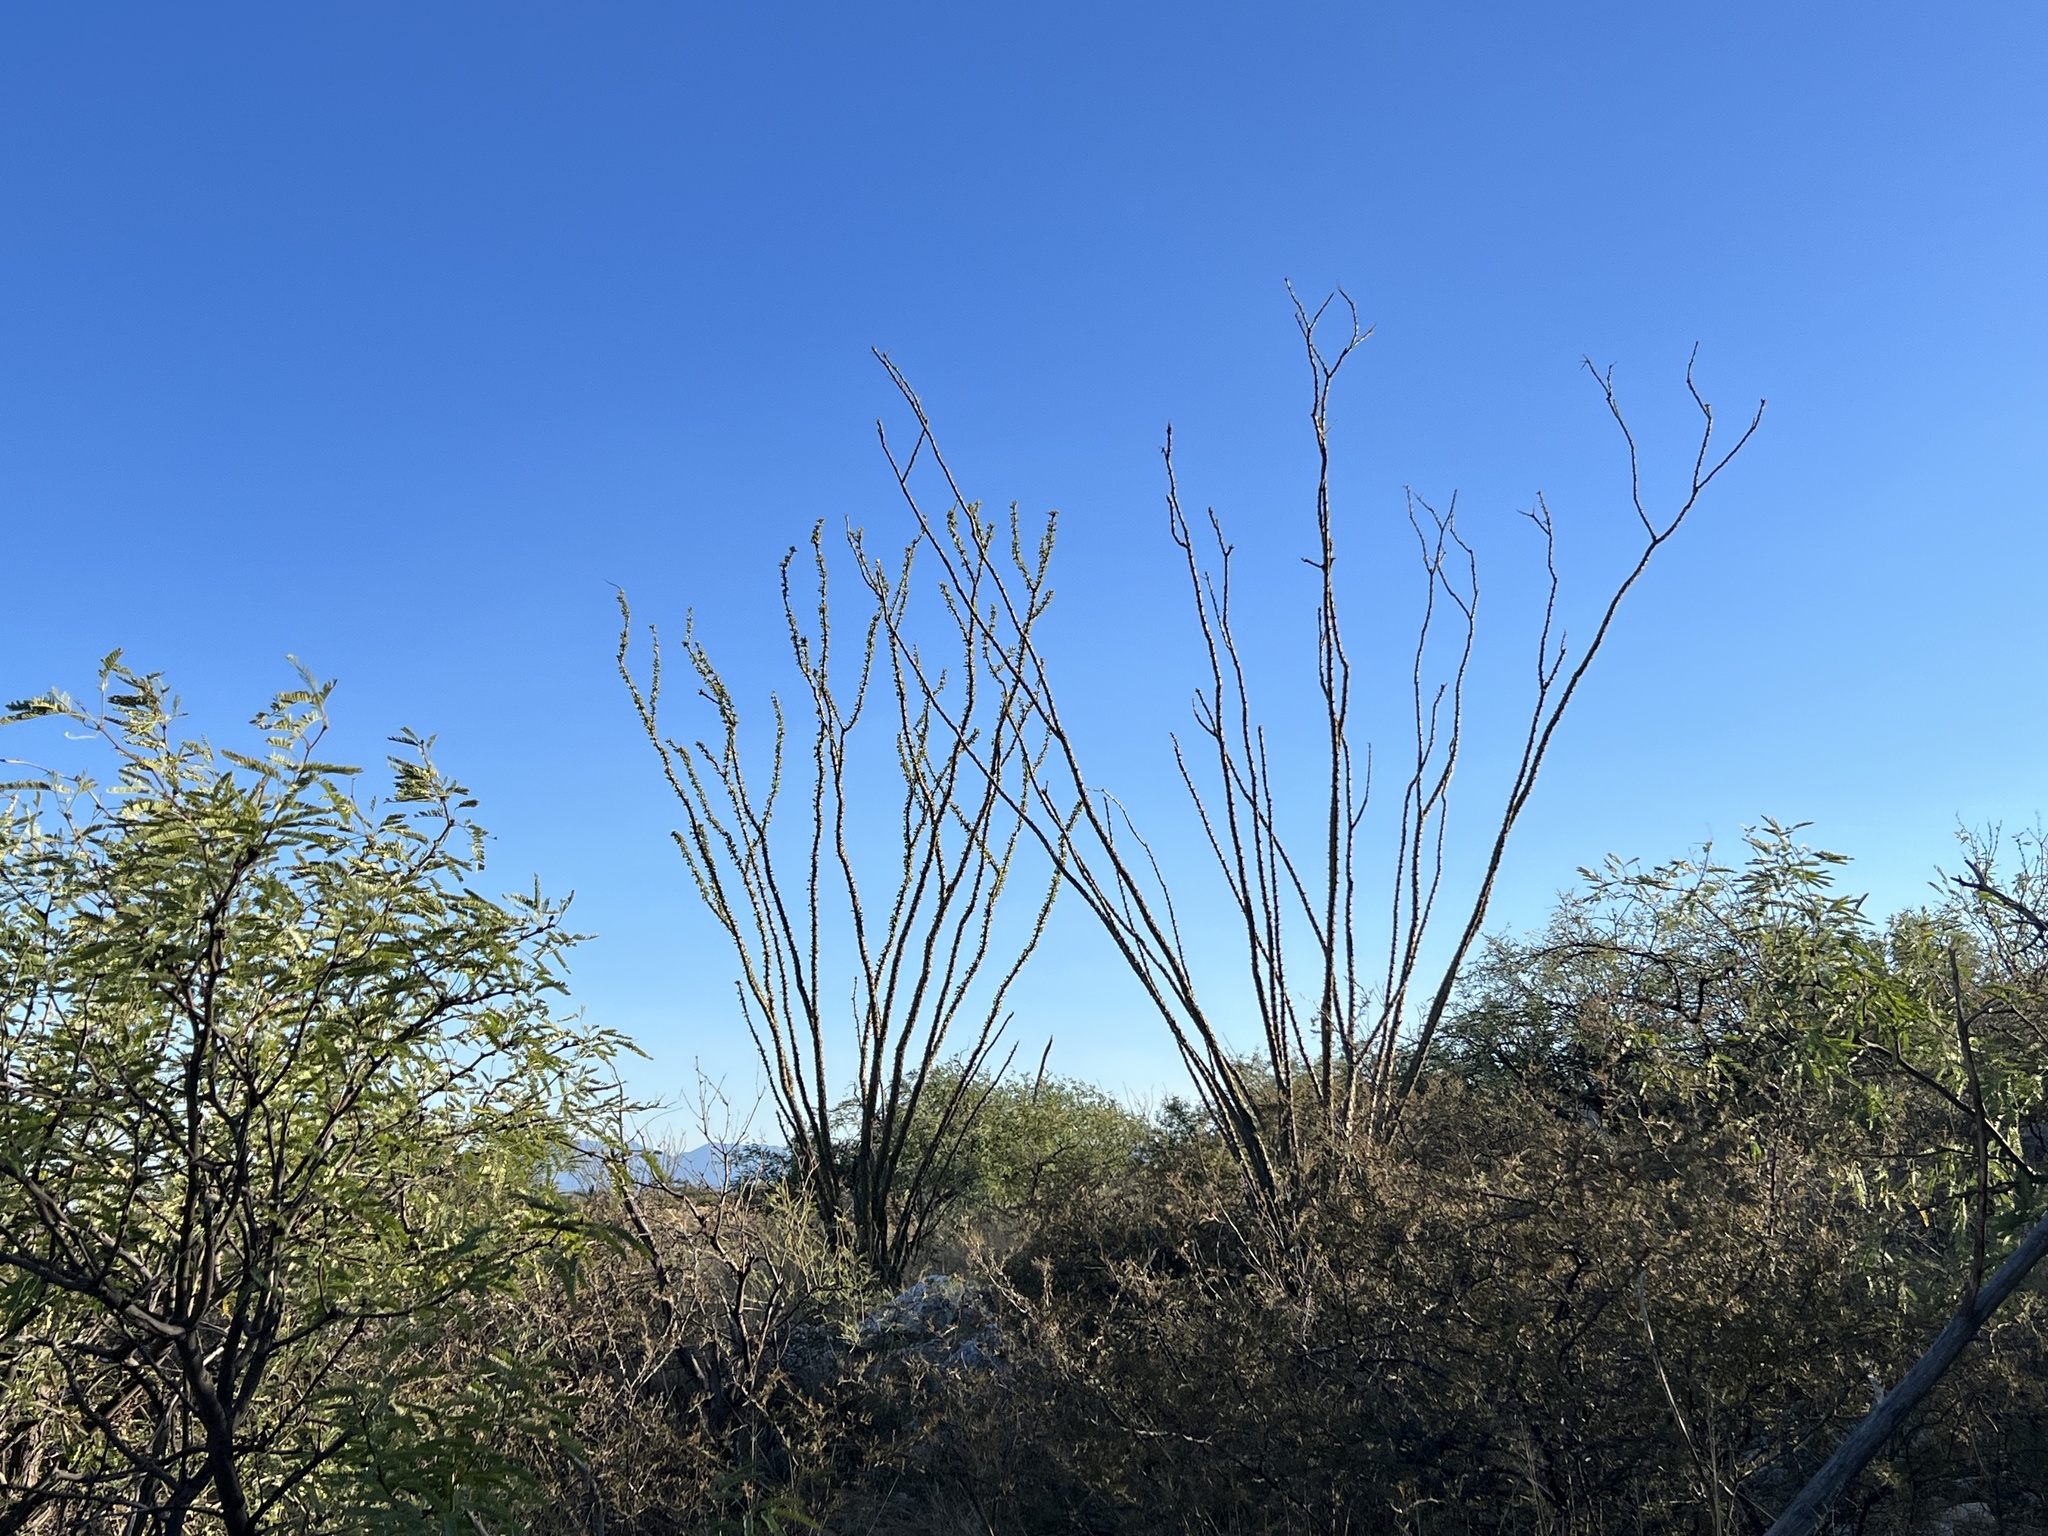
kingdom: Plantae
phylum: Tracheophyta
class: Magnoliopsida
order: Ericales
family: Fouquieriaceae
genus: Fouquieria
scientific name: Fouquieria splendens
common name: Vine-cactus
